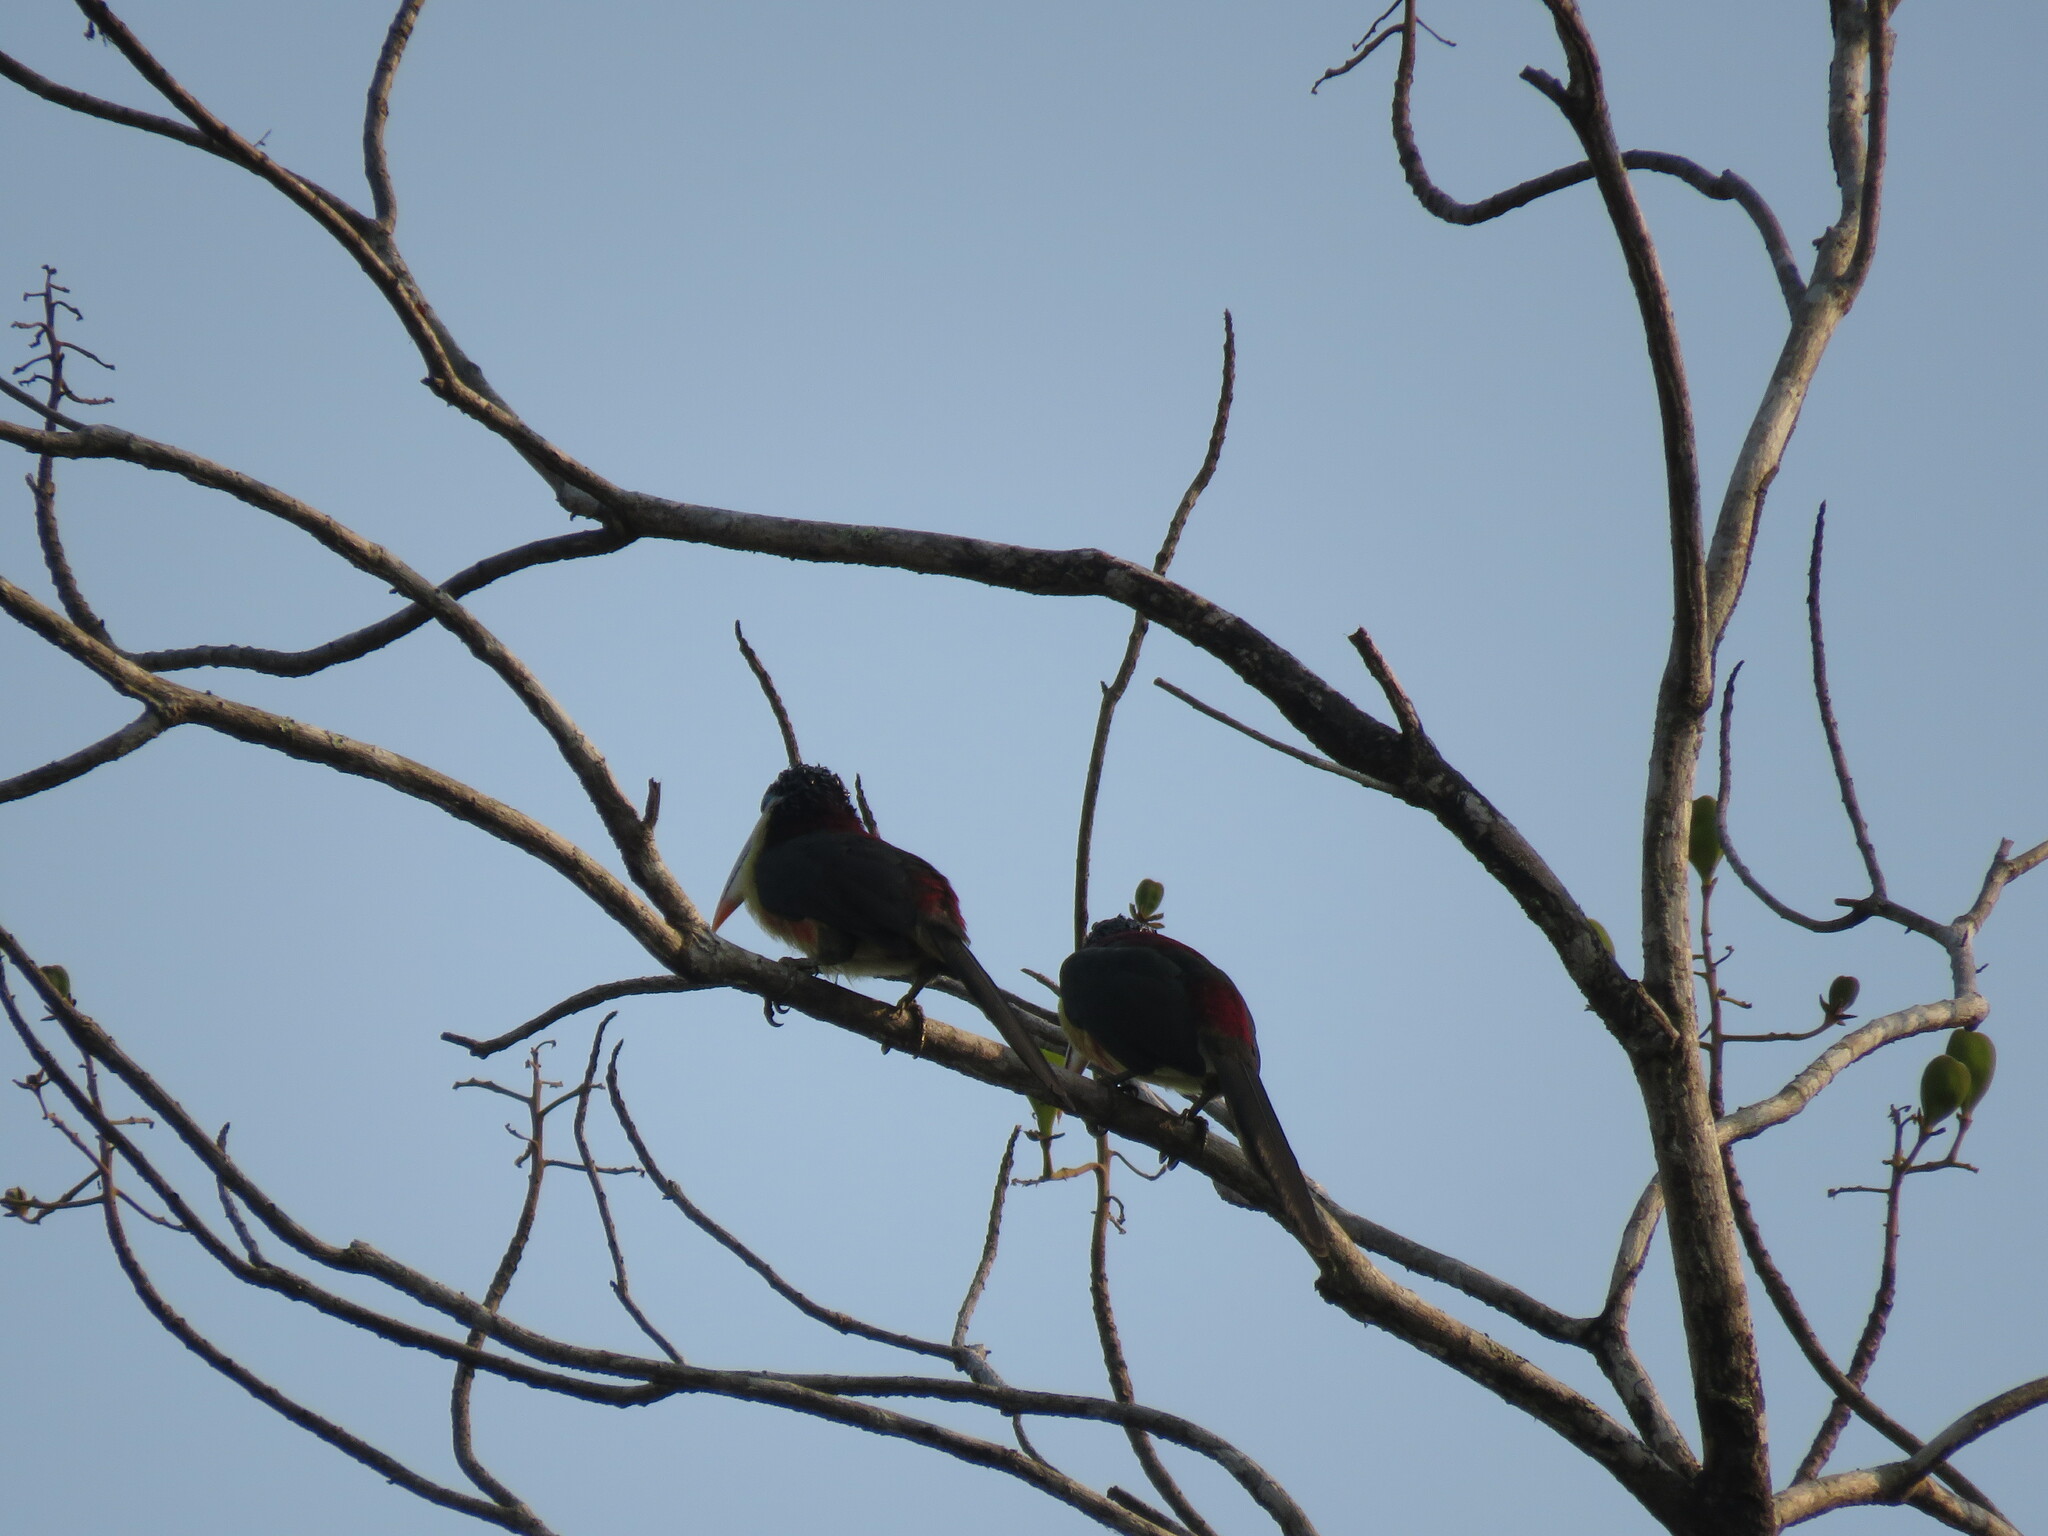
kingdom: Animalia
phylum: Chordata
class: Aves
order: Piciformes
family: Ramphastidae
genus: Pteroglossus
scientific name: Pteroglossus beauharnaisii
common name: Curl-crested aracari
